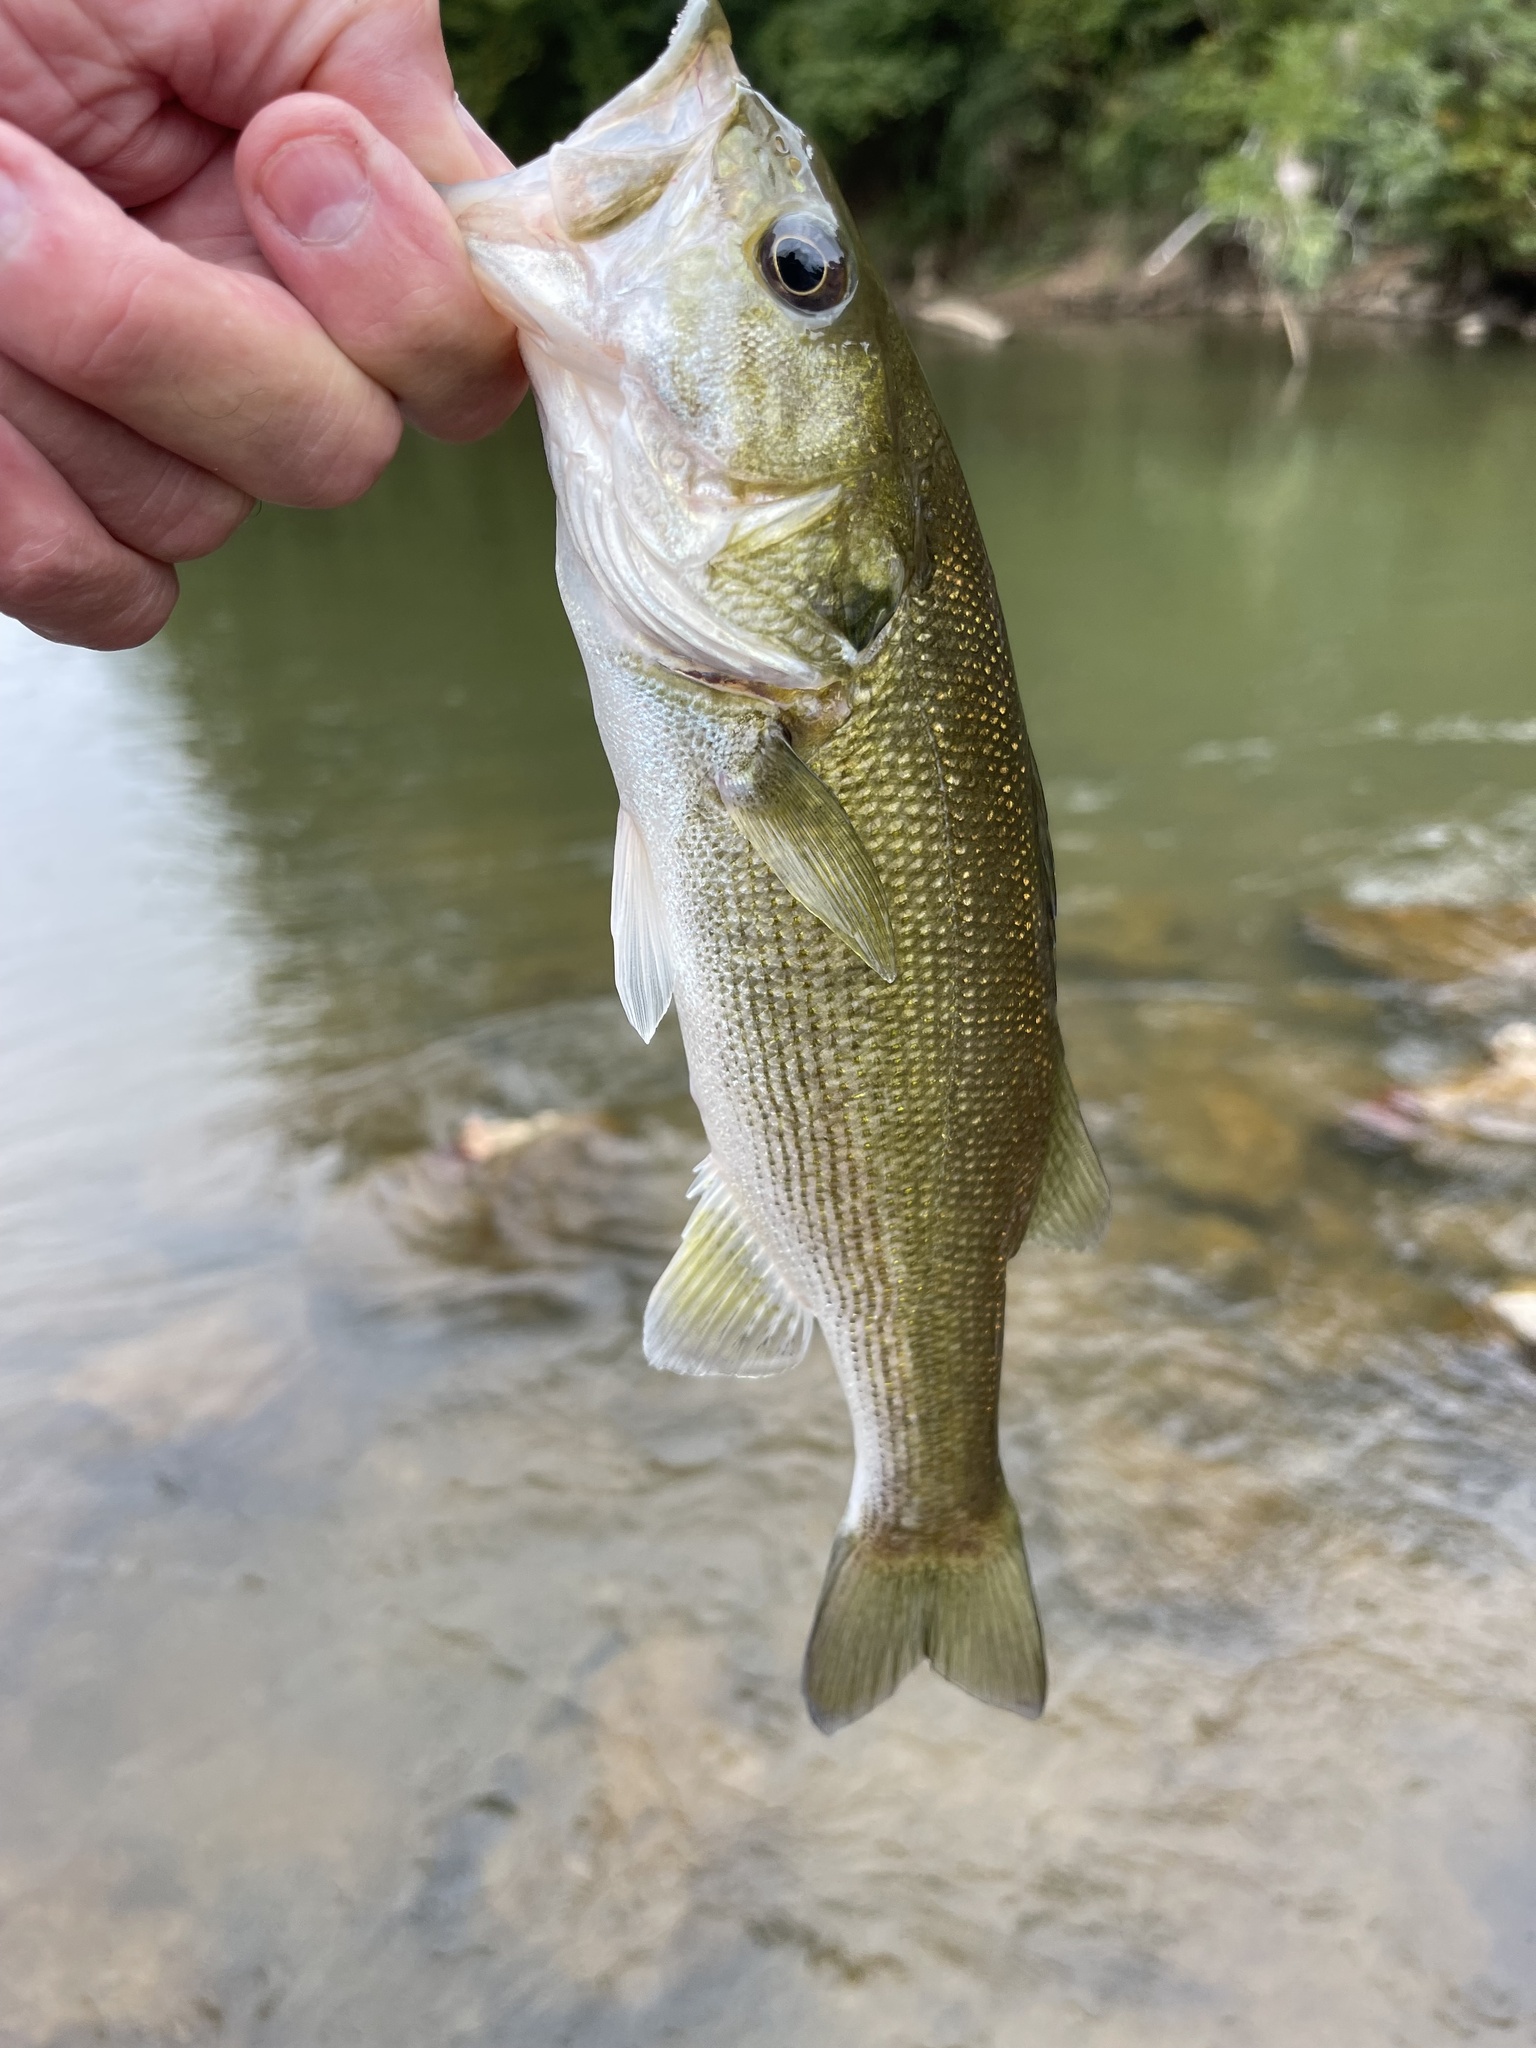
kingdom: Animalia
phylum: Chordata
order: Perciformes
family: Centrarchidae
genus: Micropterus
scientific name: Micropterus henshalli
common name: Alabama bass
